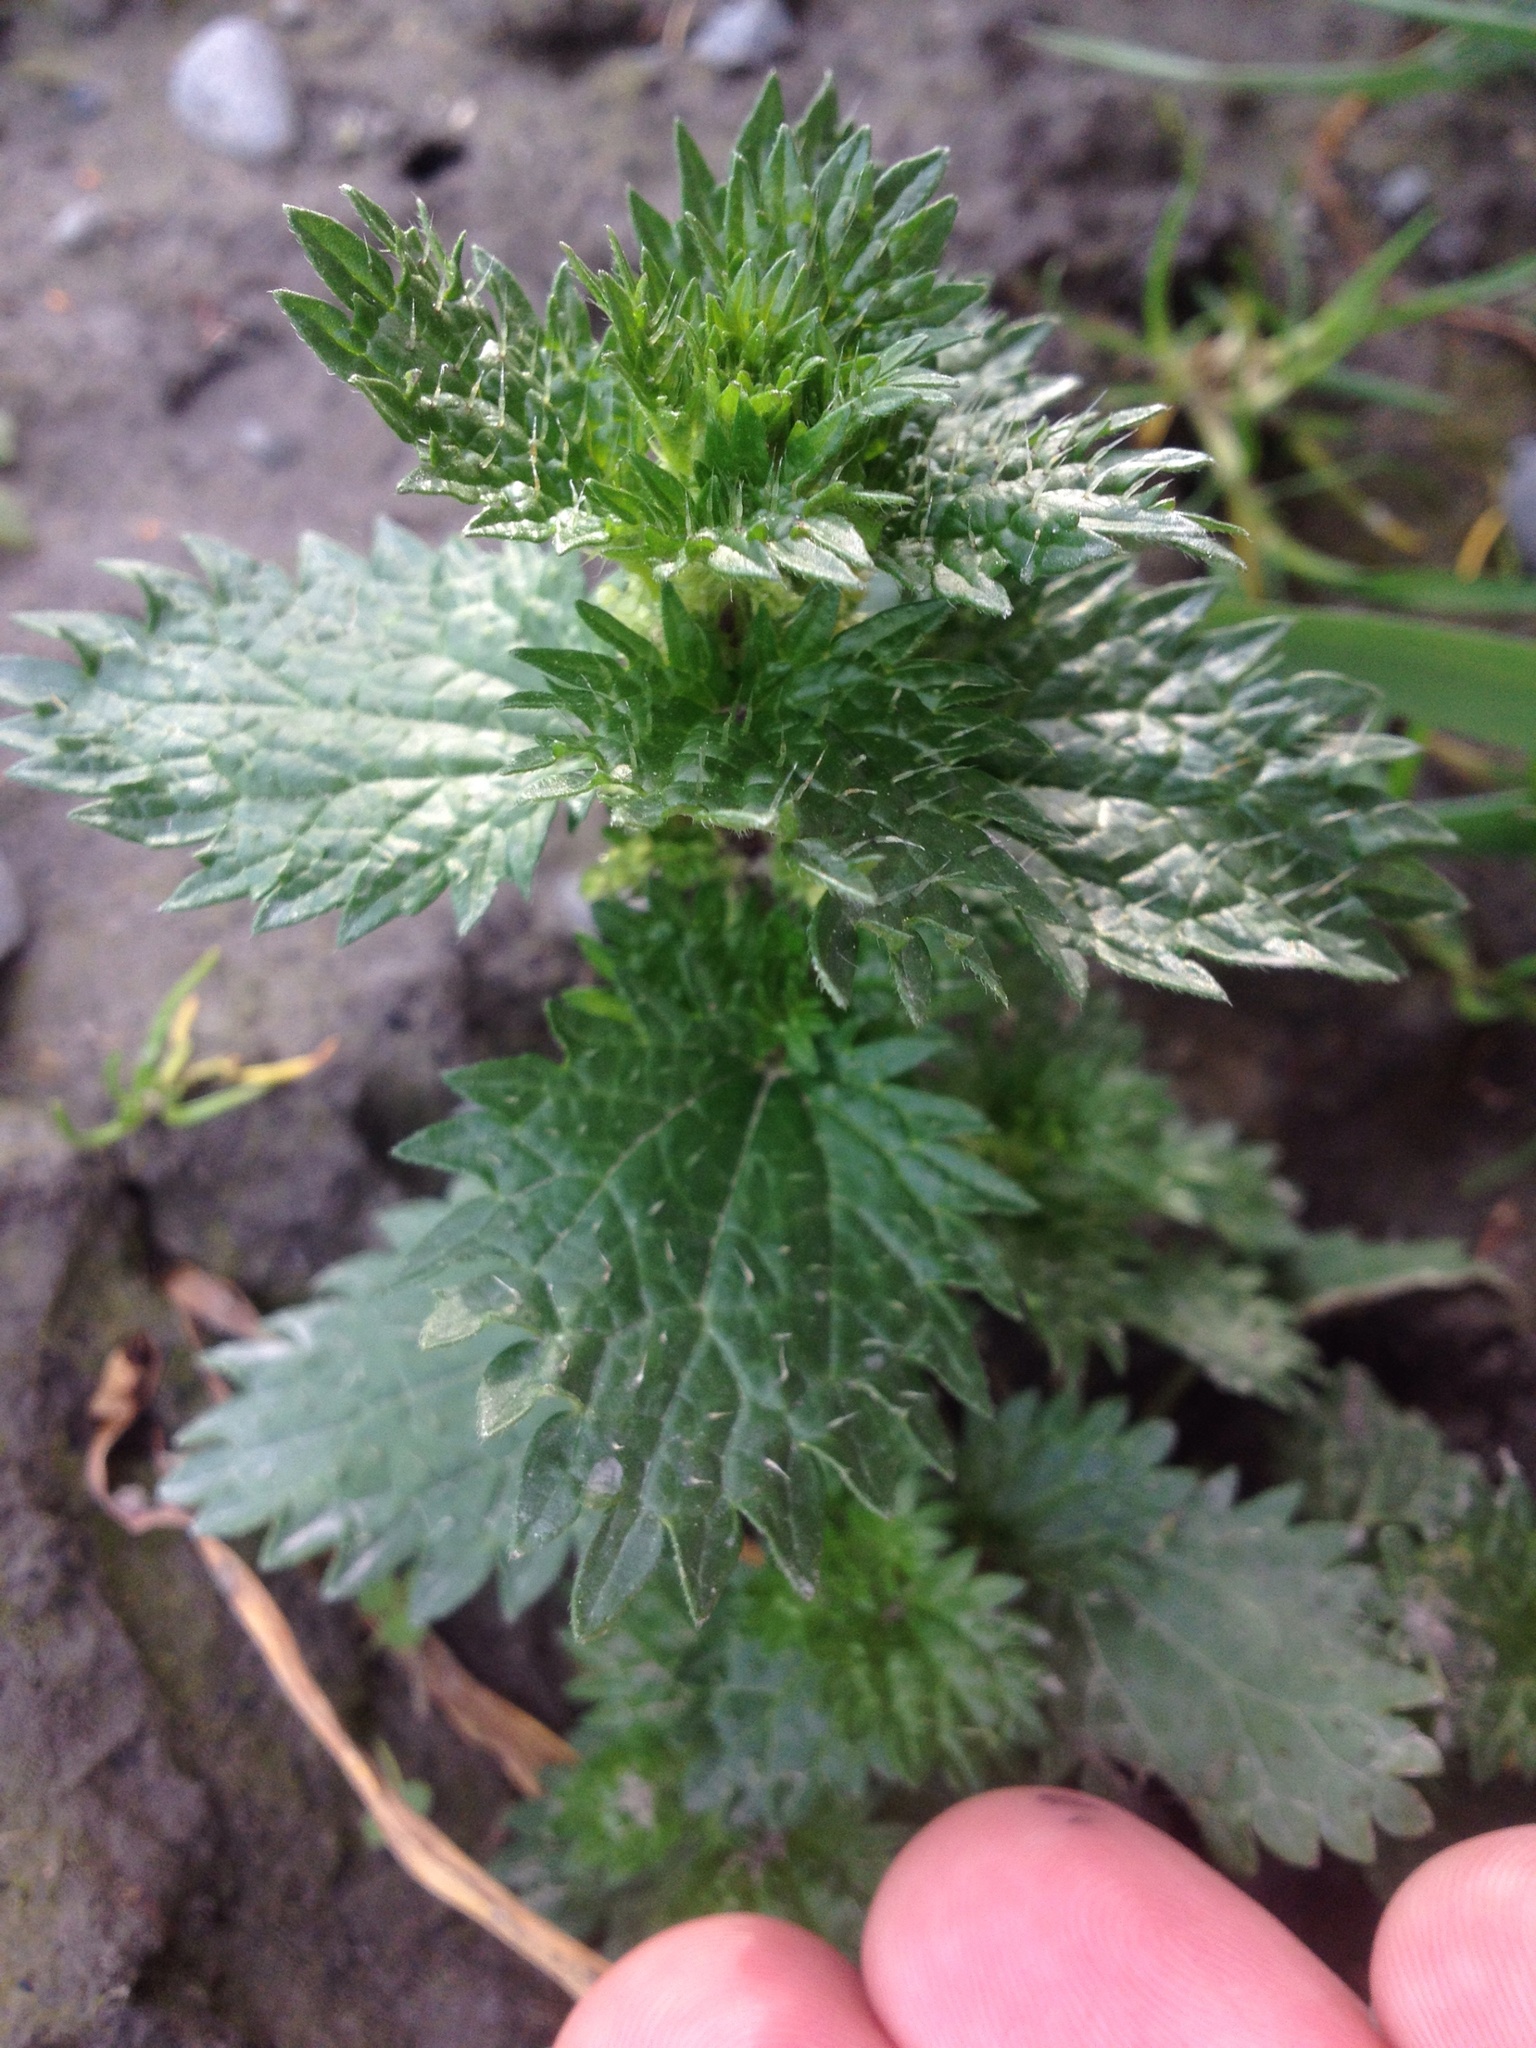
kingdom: Plantae
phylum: Tracheophyta
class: Magnoliopsida
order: Rosales
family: Urticaceae
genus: Urtica
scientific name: Urtica urens
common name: Dwarf nettle
